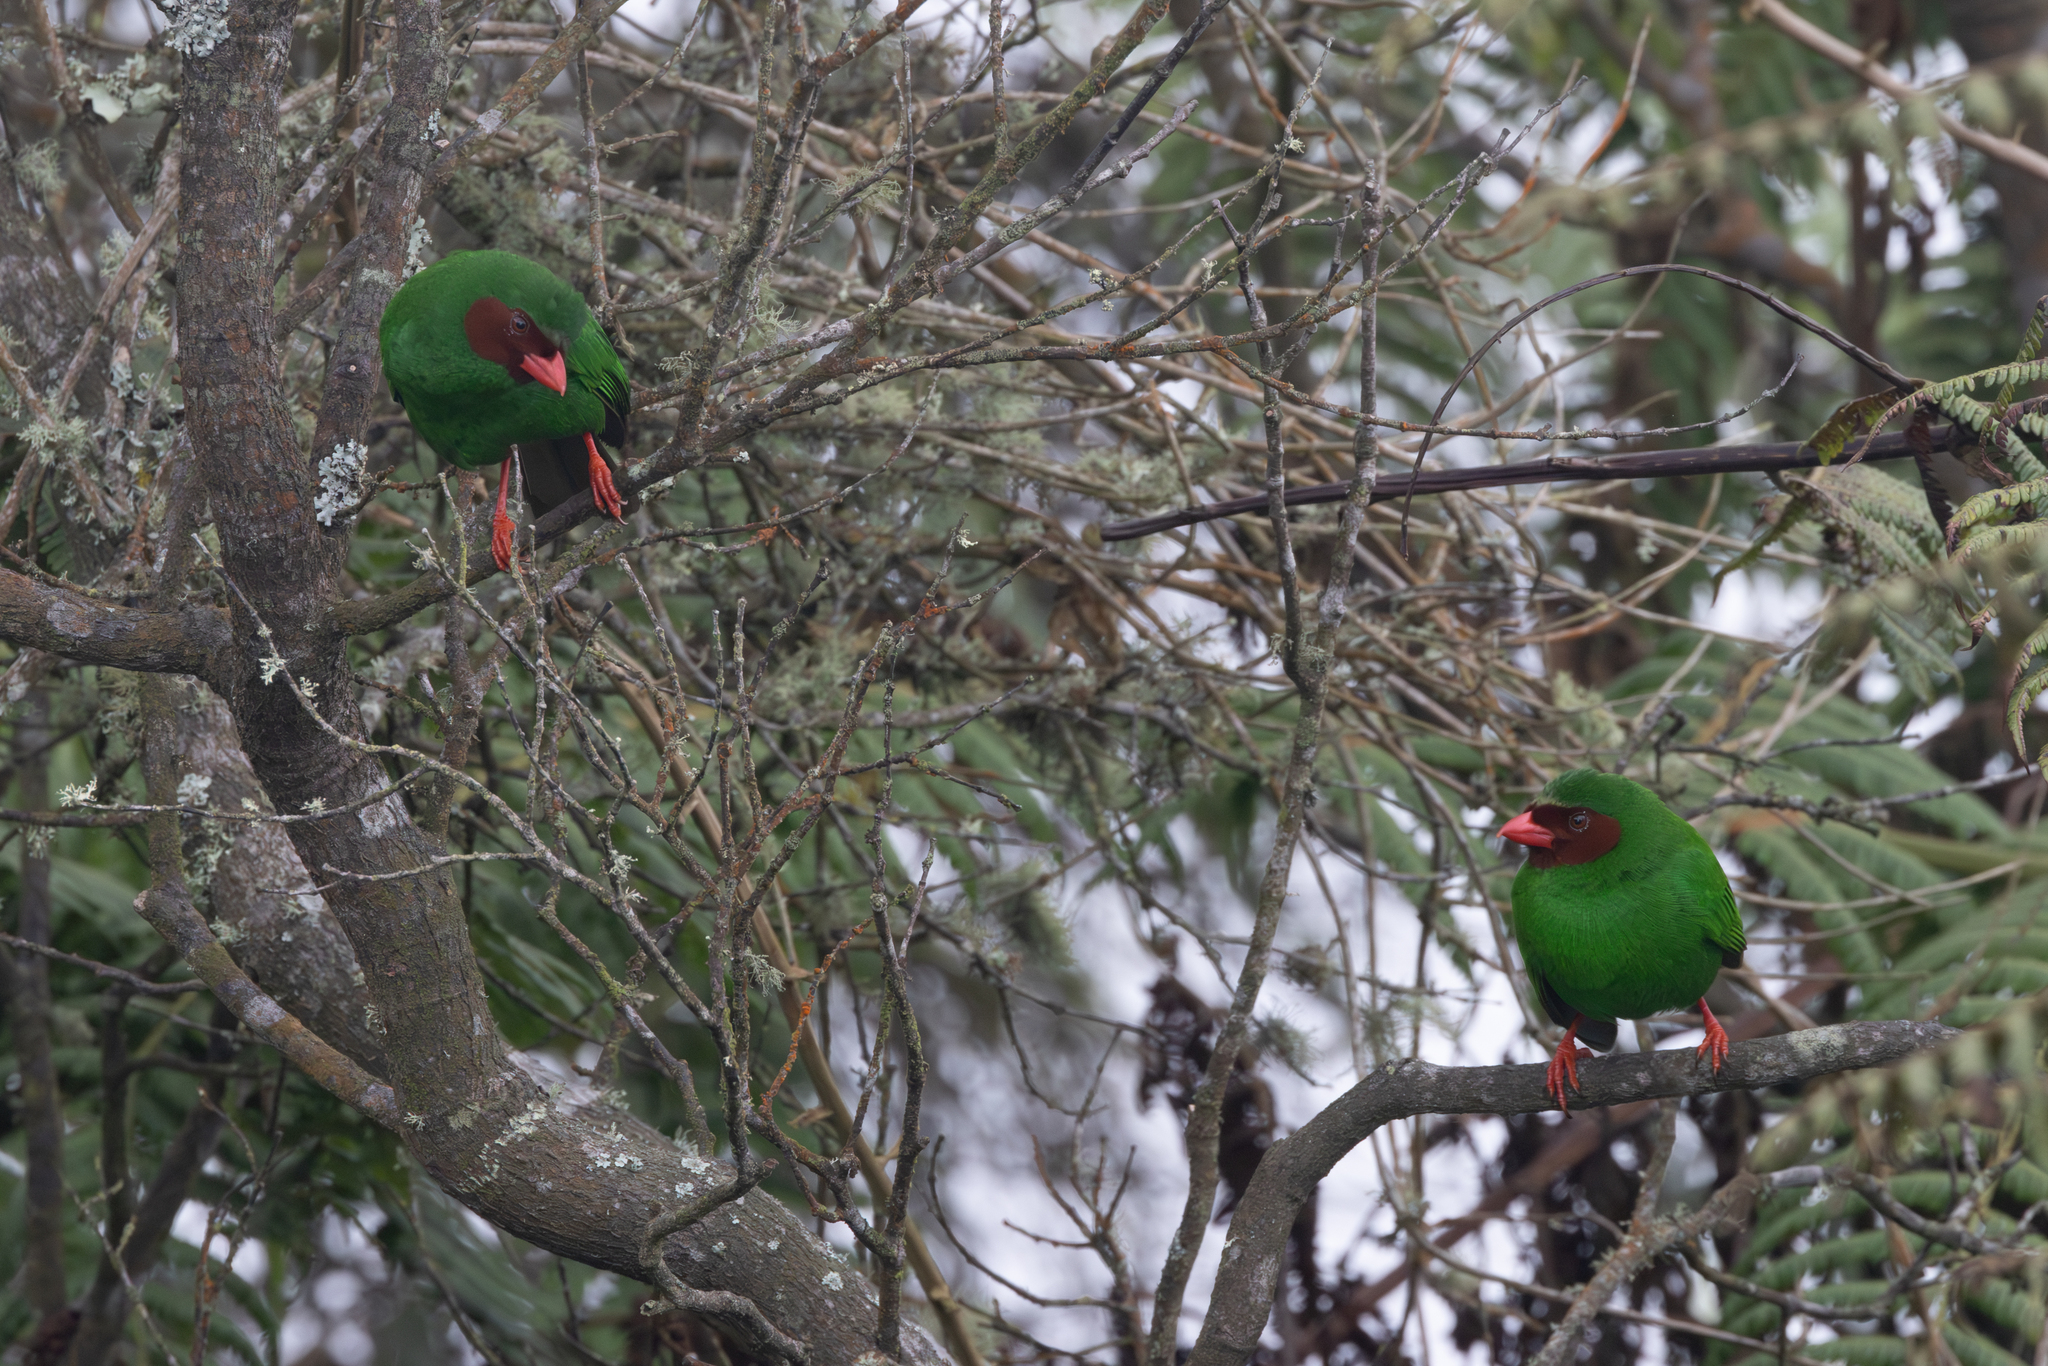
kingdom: Animalia
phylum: Chordata
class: Aves
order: Passeriformes
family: Thraupidae
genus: Chlorornis
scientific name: Chlorornis riefferii
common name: Grass-green tanager
